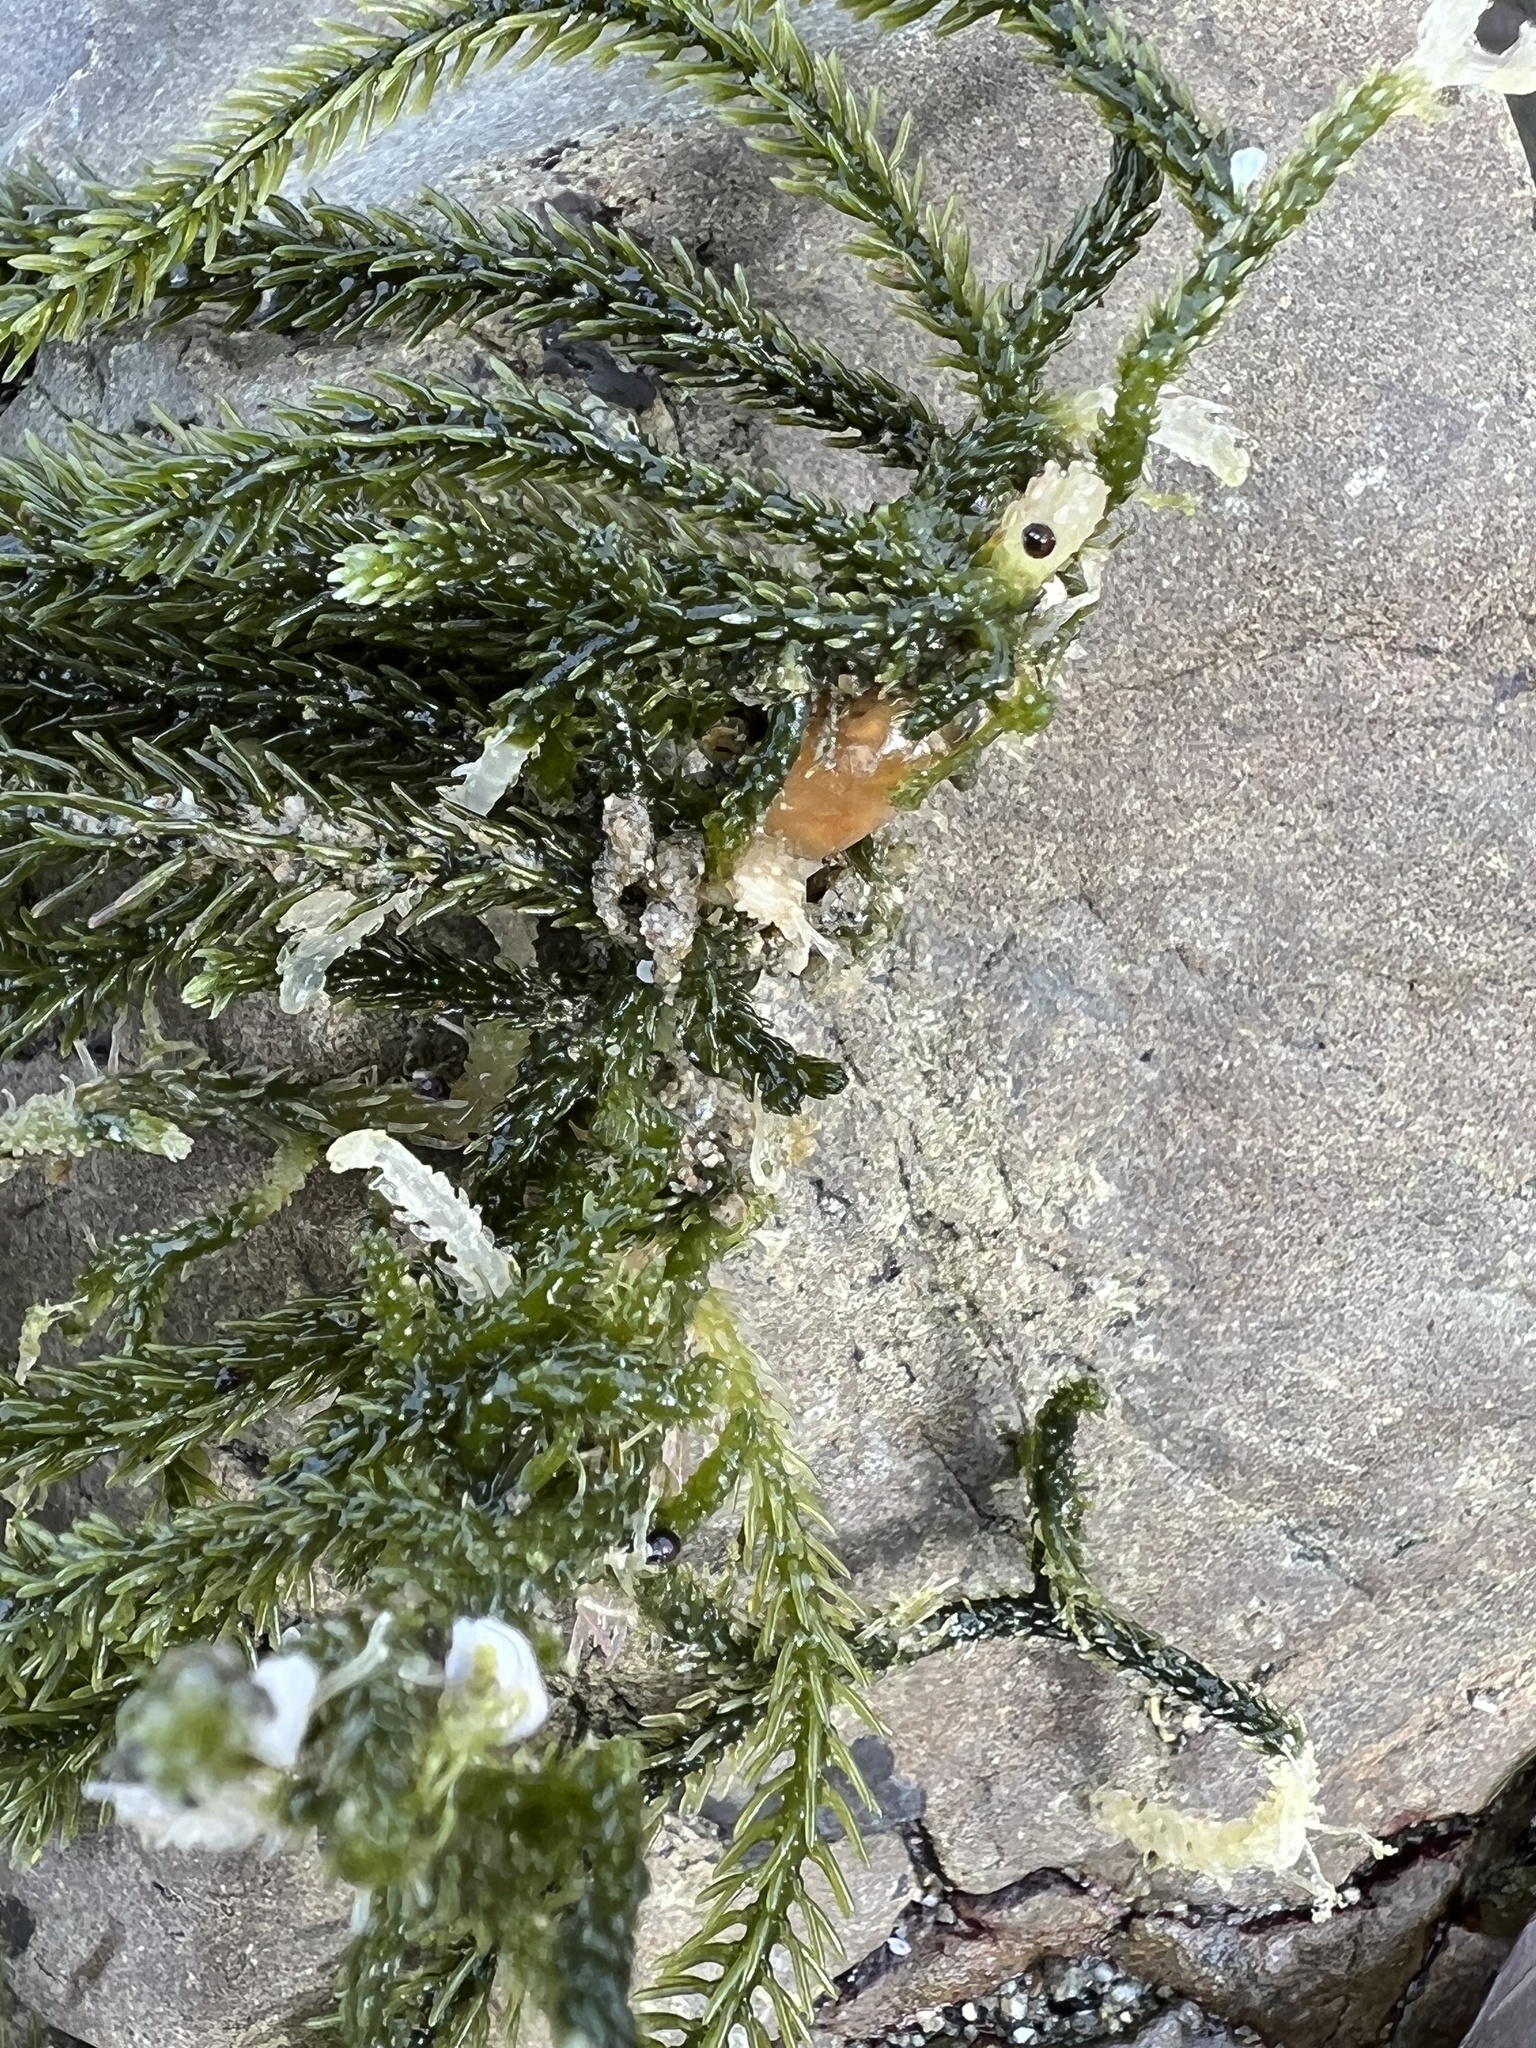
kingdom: Plantae
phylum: Chlorophyta
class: Ulvophyceae
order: Bryopsidales
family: Caulerpaceae
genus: Caulerpa
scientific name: Caulerpa brownii
